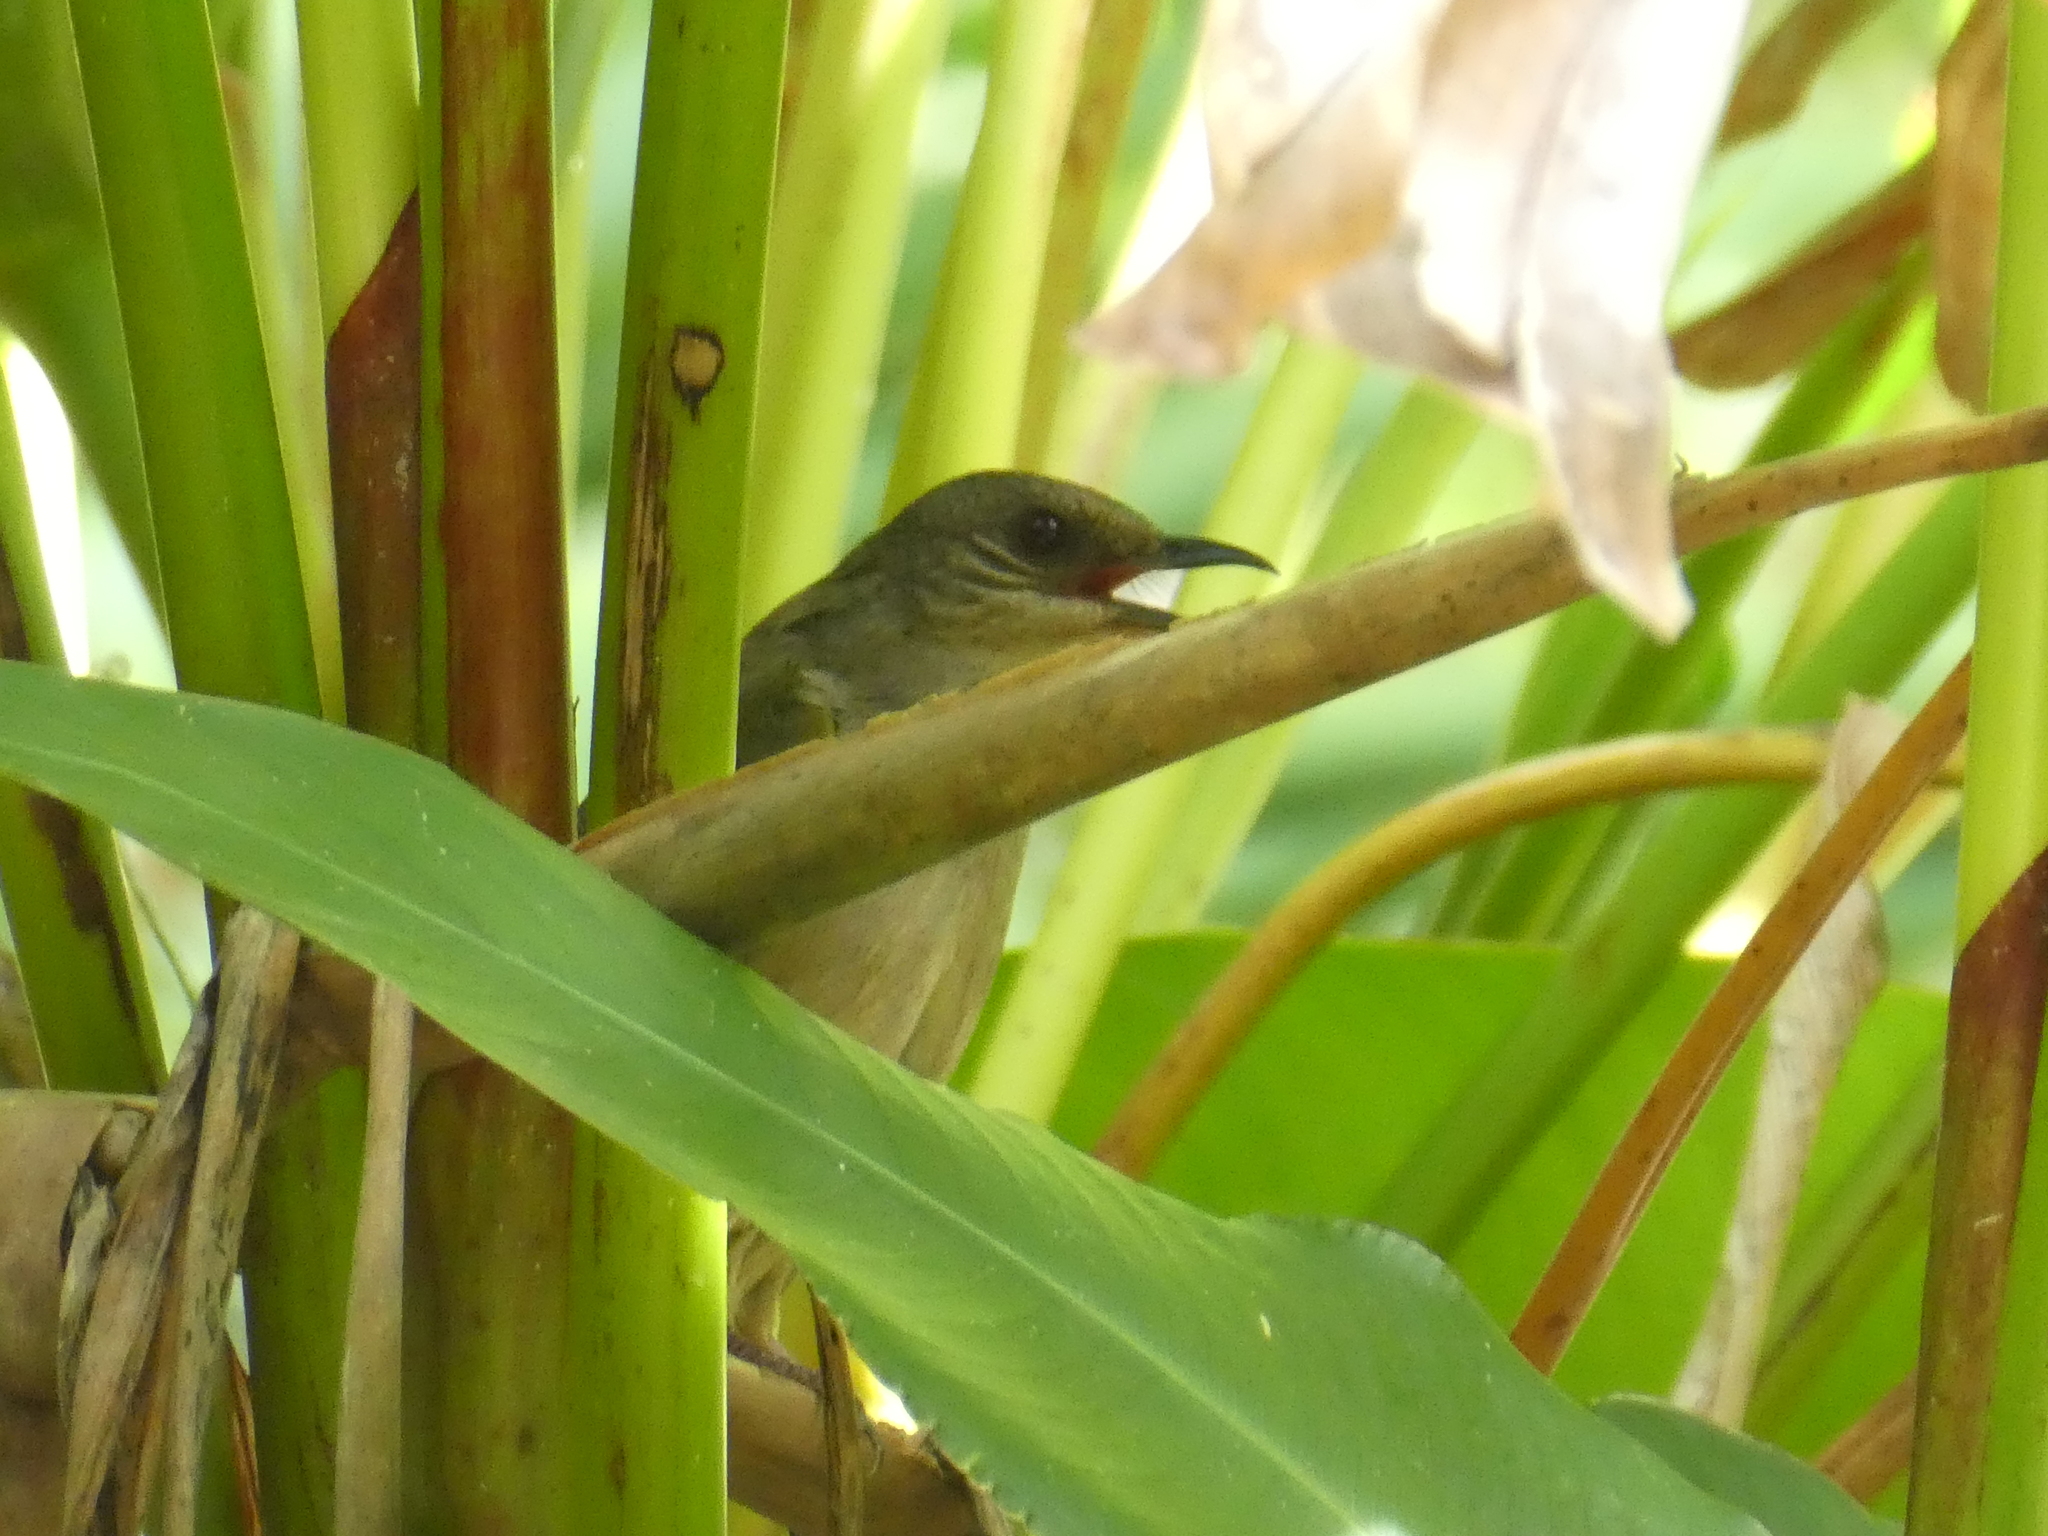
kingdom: Animalia
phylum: Chordata
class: Aves
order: Passeriformes
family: Pycnonotidae
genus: Pycnonotus
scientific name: Pycnonotus blanfordi
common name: Streak-eared bulbul
